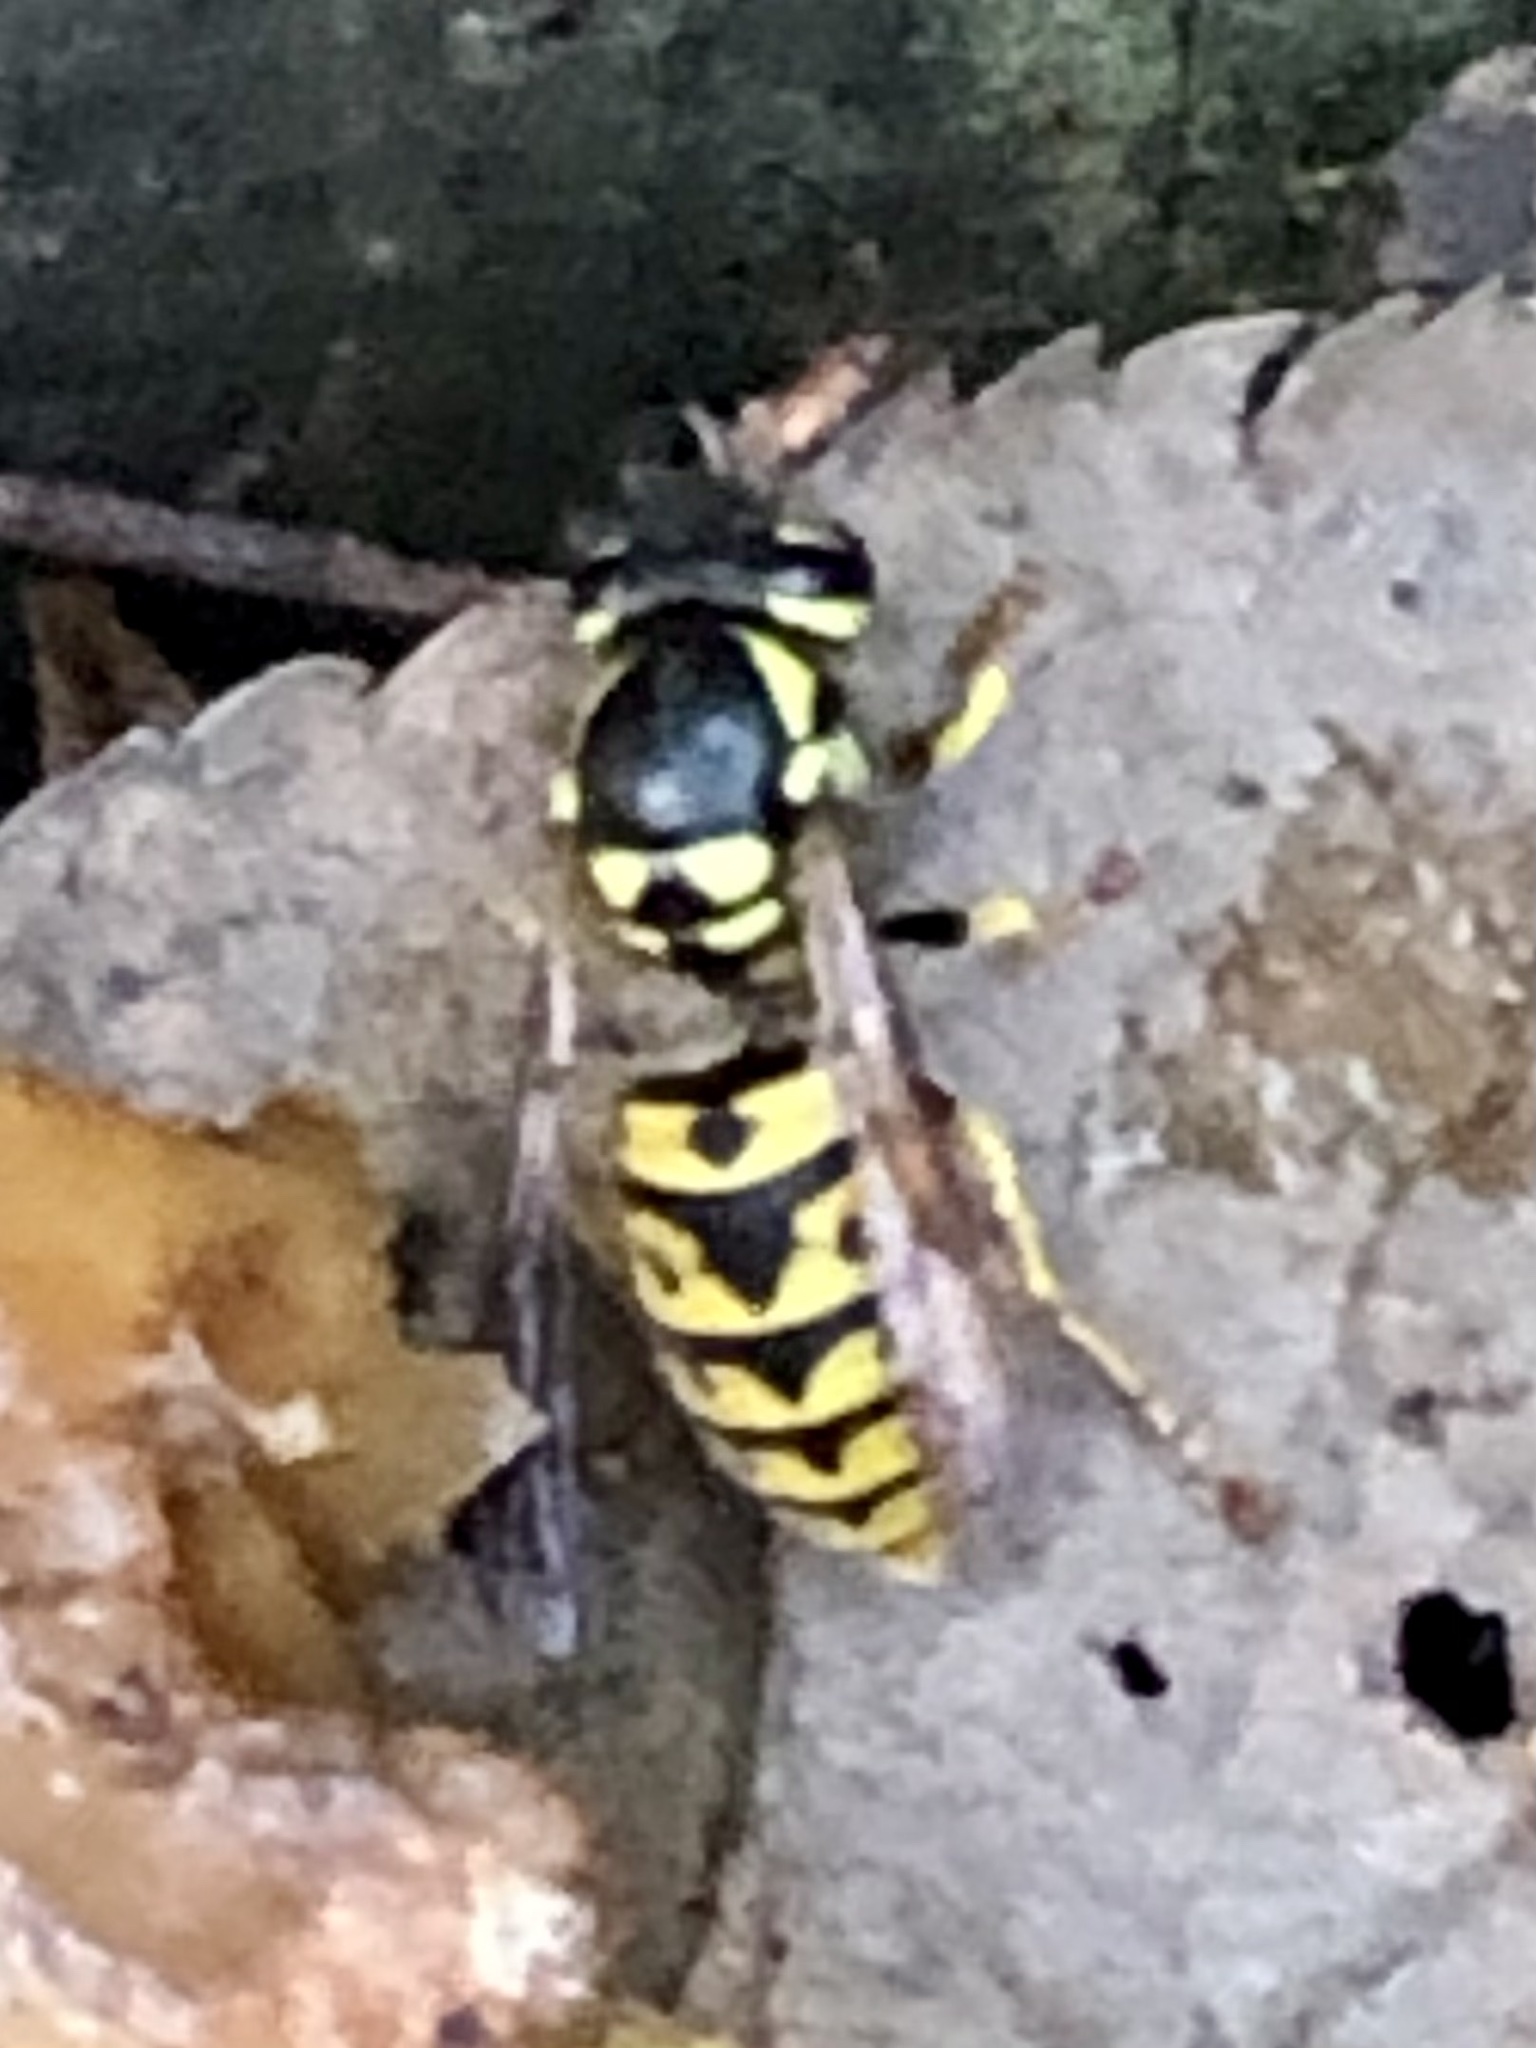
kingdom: Animalia
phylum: Arthropoda
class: Insecta
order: Hymenoptera
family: Vespidae
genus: Vespula
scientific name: Vespula germanica
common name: German wasp
